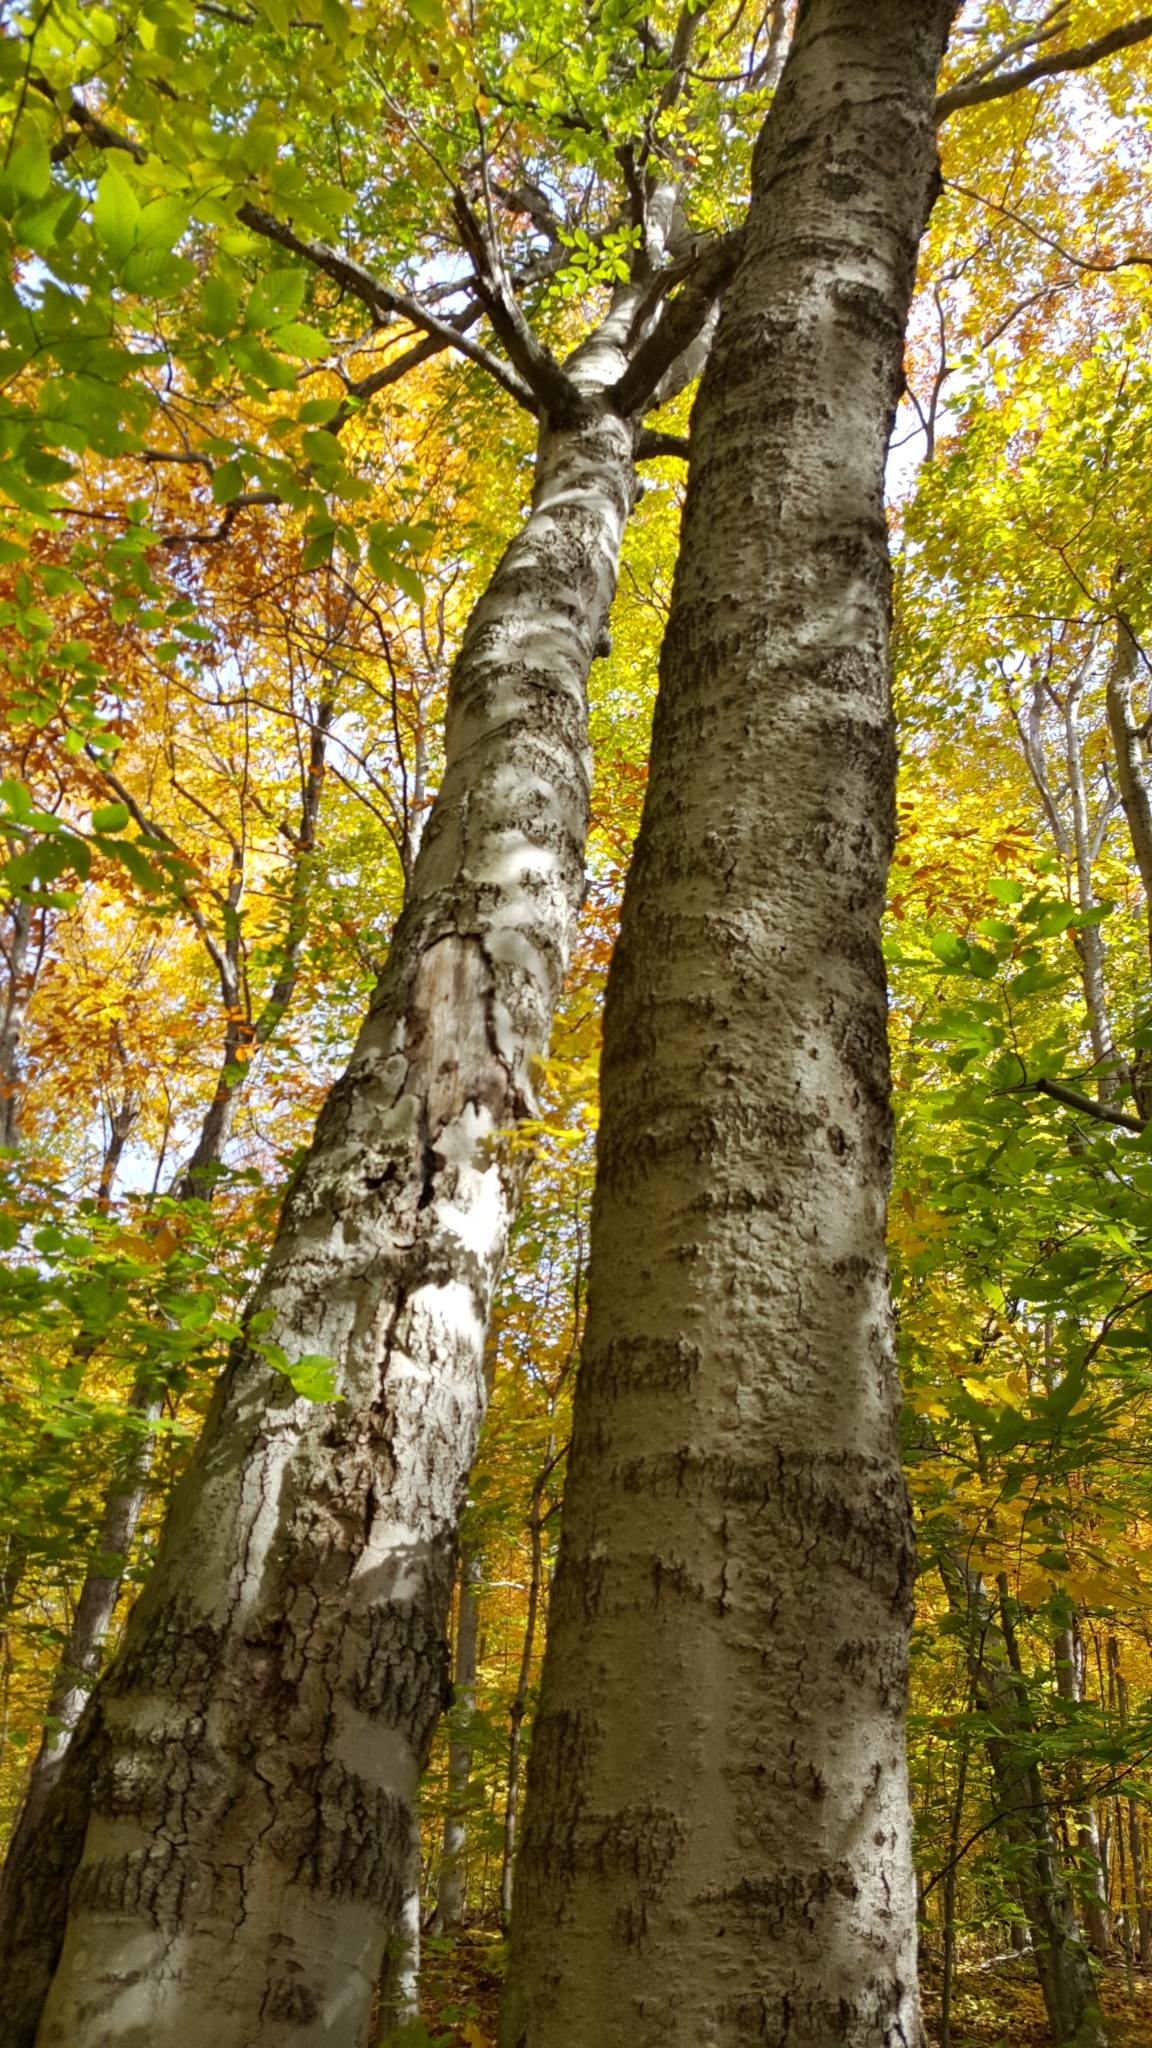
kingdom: Plantae
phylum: Tracheophyta
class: Magnoliopsida
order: Fagales
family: Fagaceae
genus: Fagus
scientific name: Fagus grandifolia
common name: American beech
